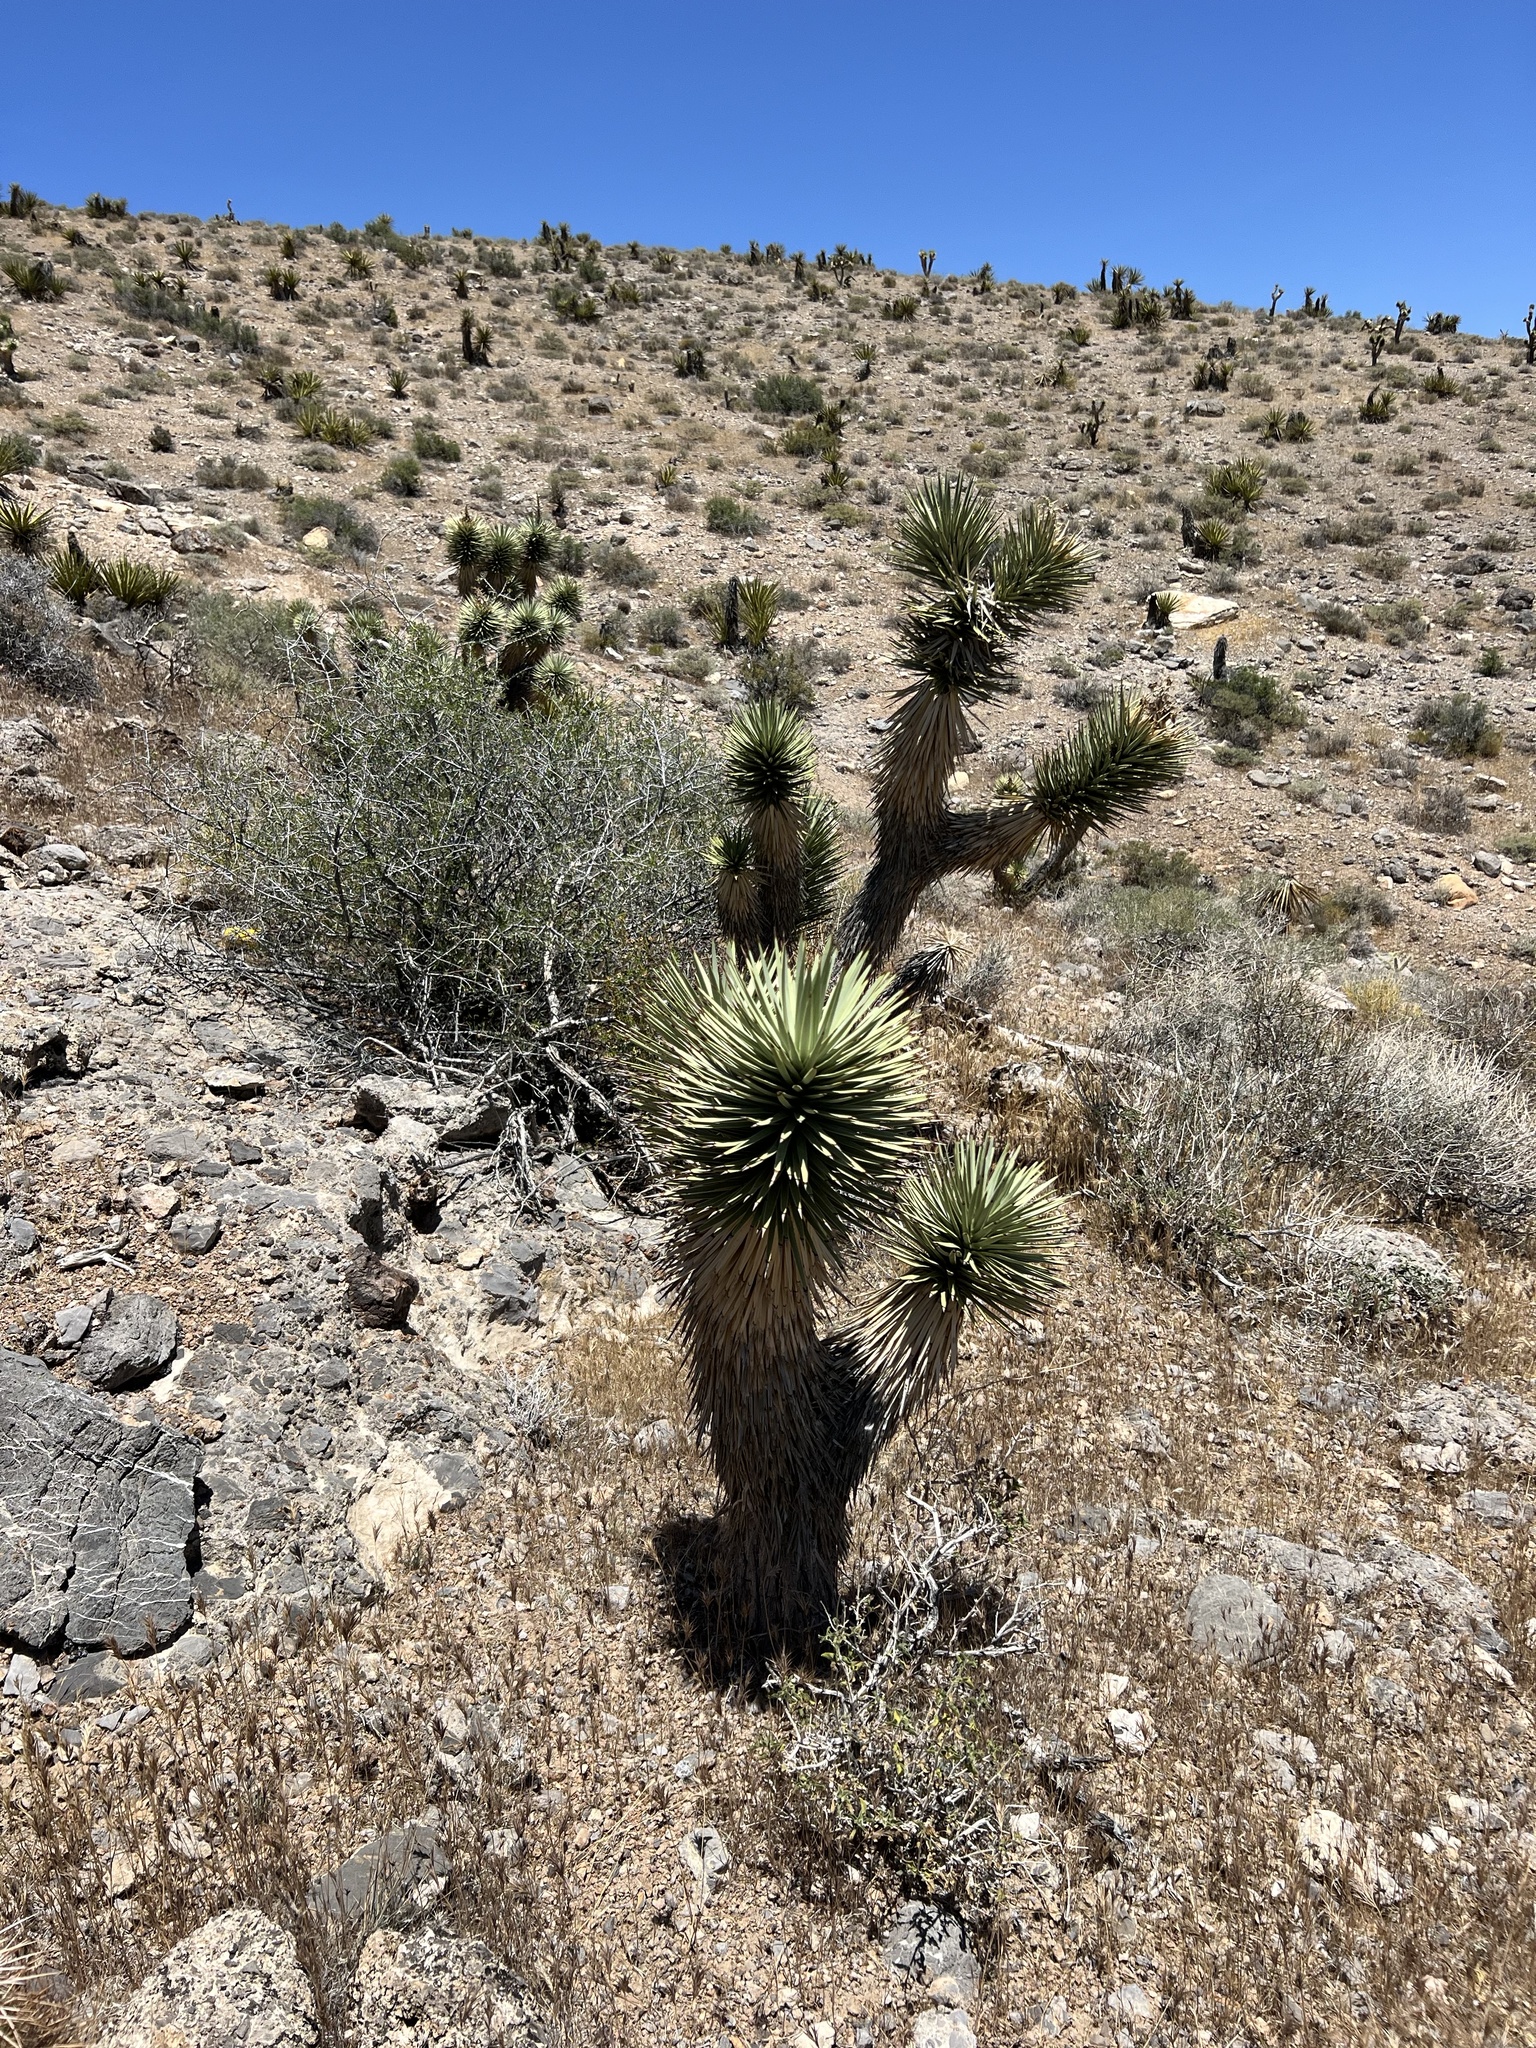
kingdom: Plantae
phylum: Tracheophyta
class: Liliopsida
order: Asparagales
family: Asparagaceae
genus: Yucca
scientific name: Yucca brevifolia
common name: Joshua tree
